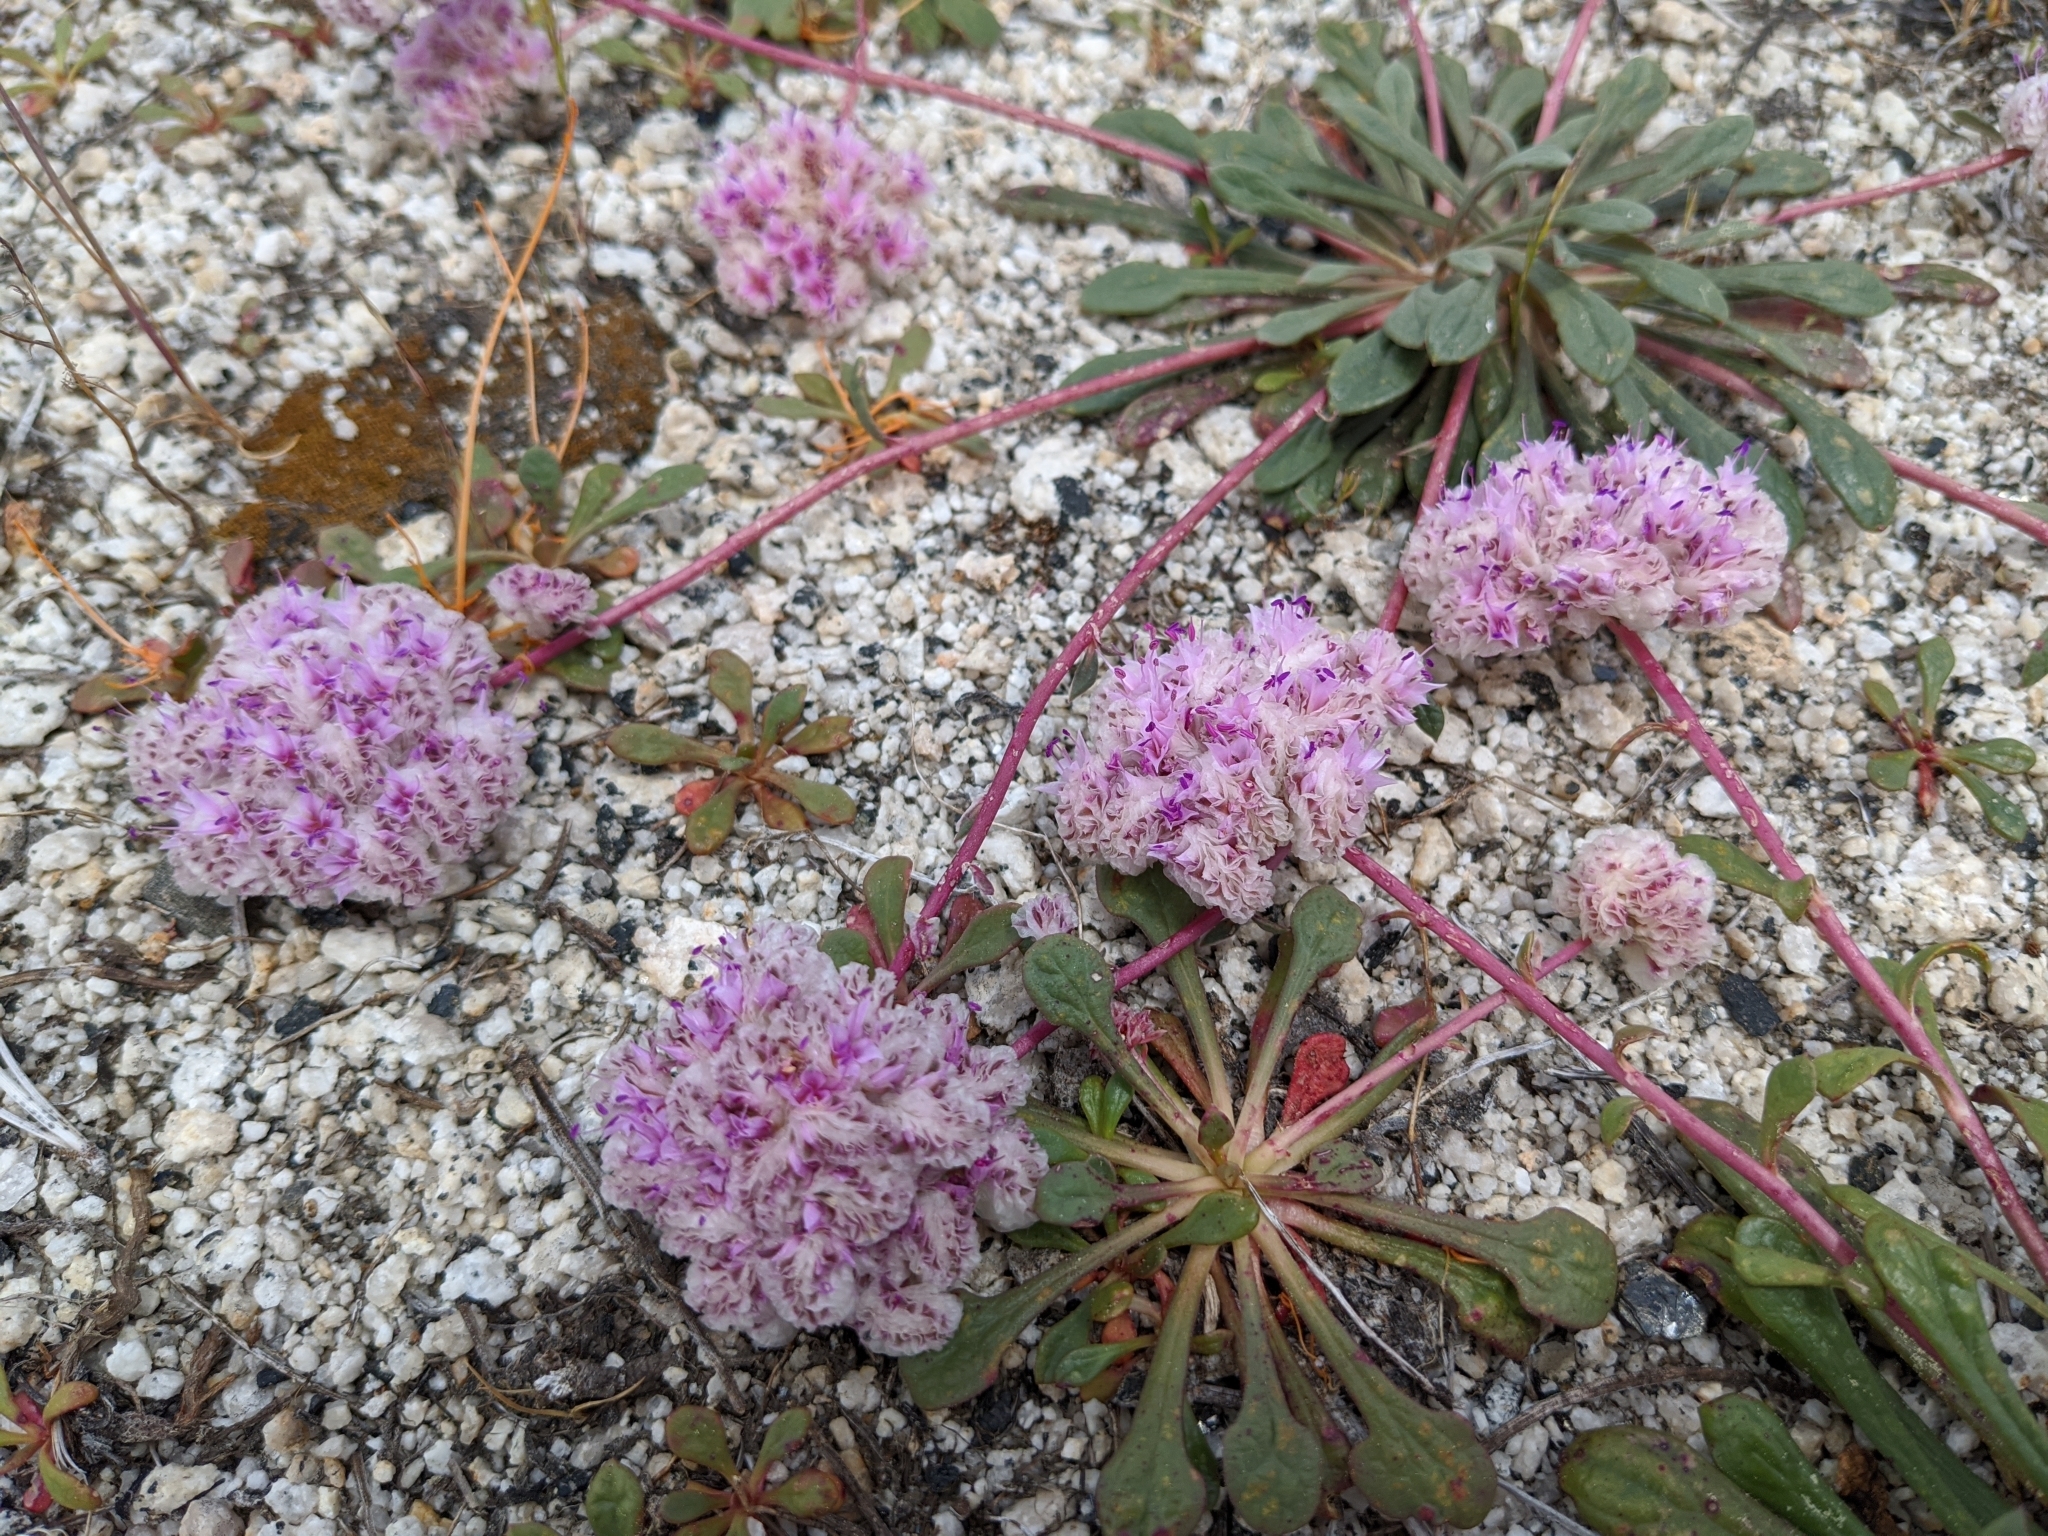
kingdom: Plantae
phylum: Tracheophyta
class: Magnoliopsida
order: Caryophyllales
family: Montiaceae
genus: Calyptridium
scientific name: Calyptridium monospermum
